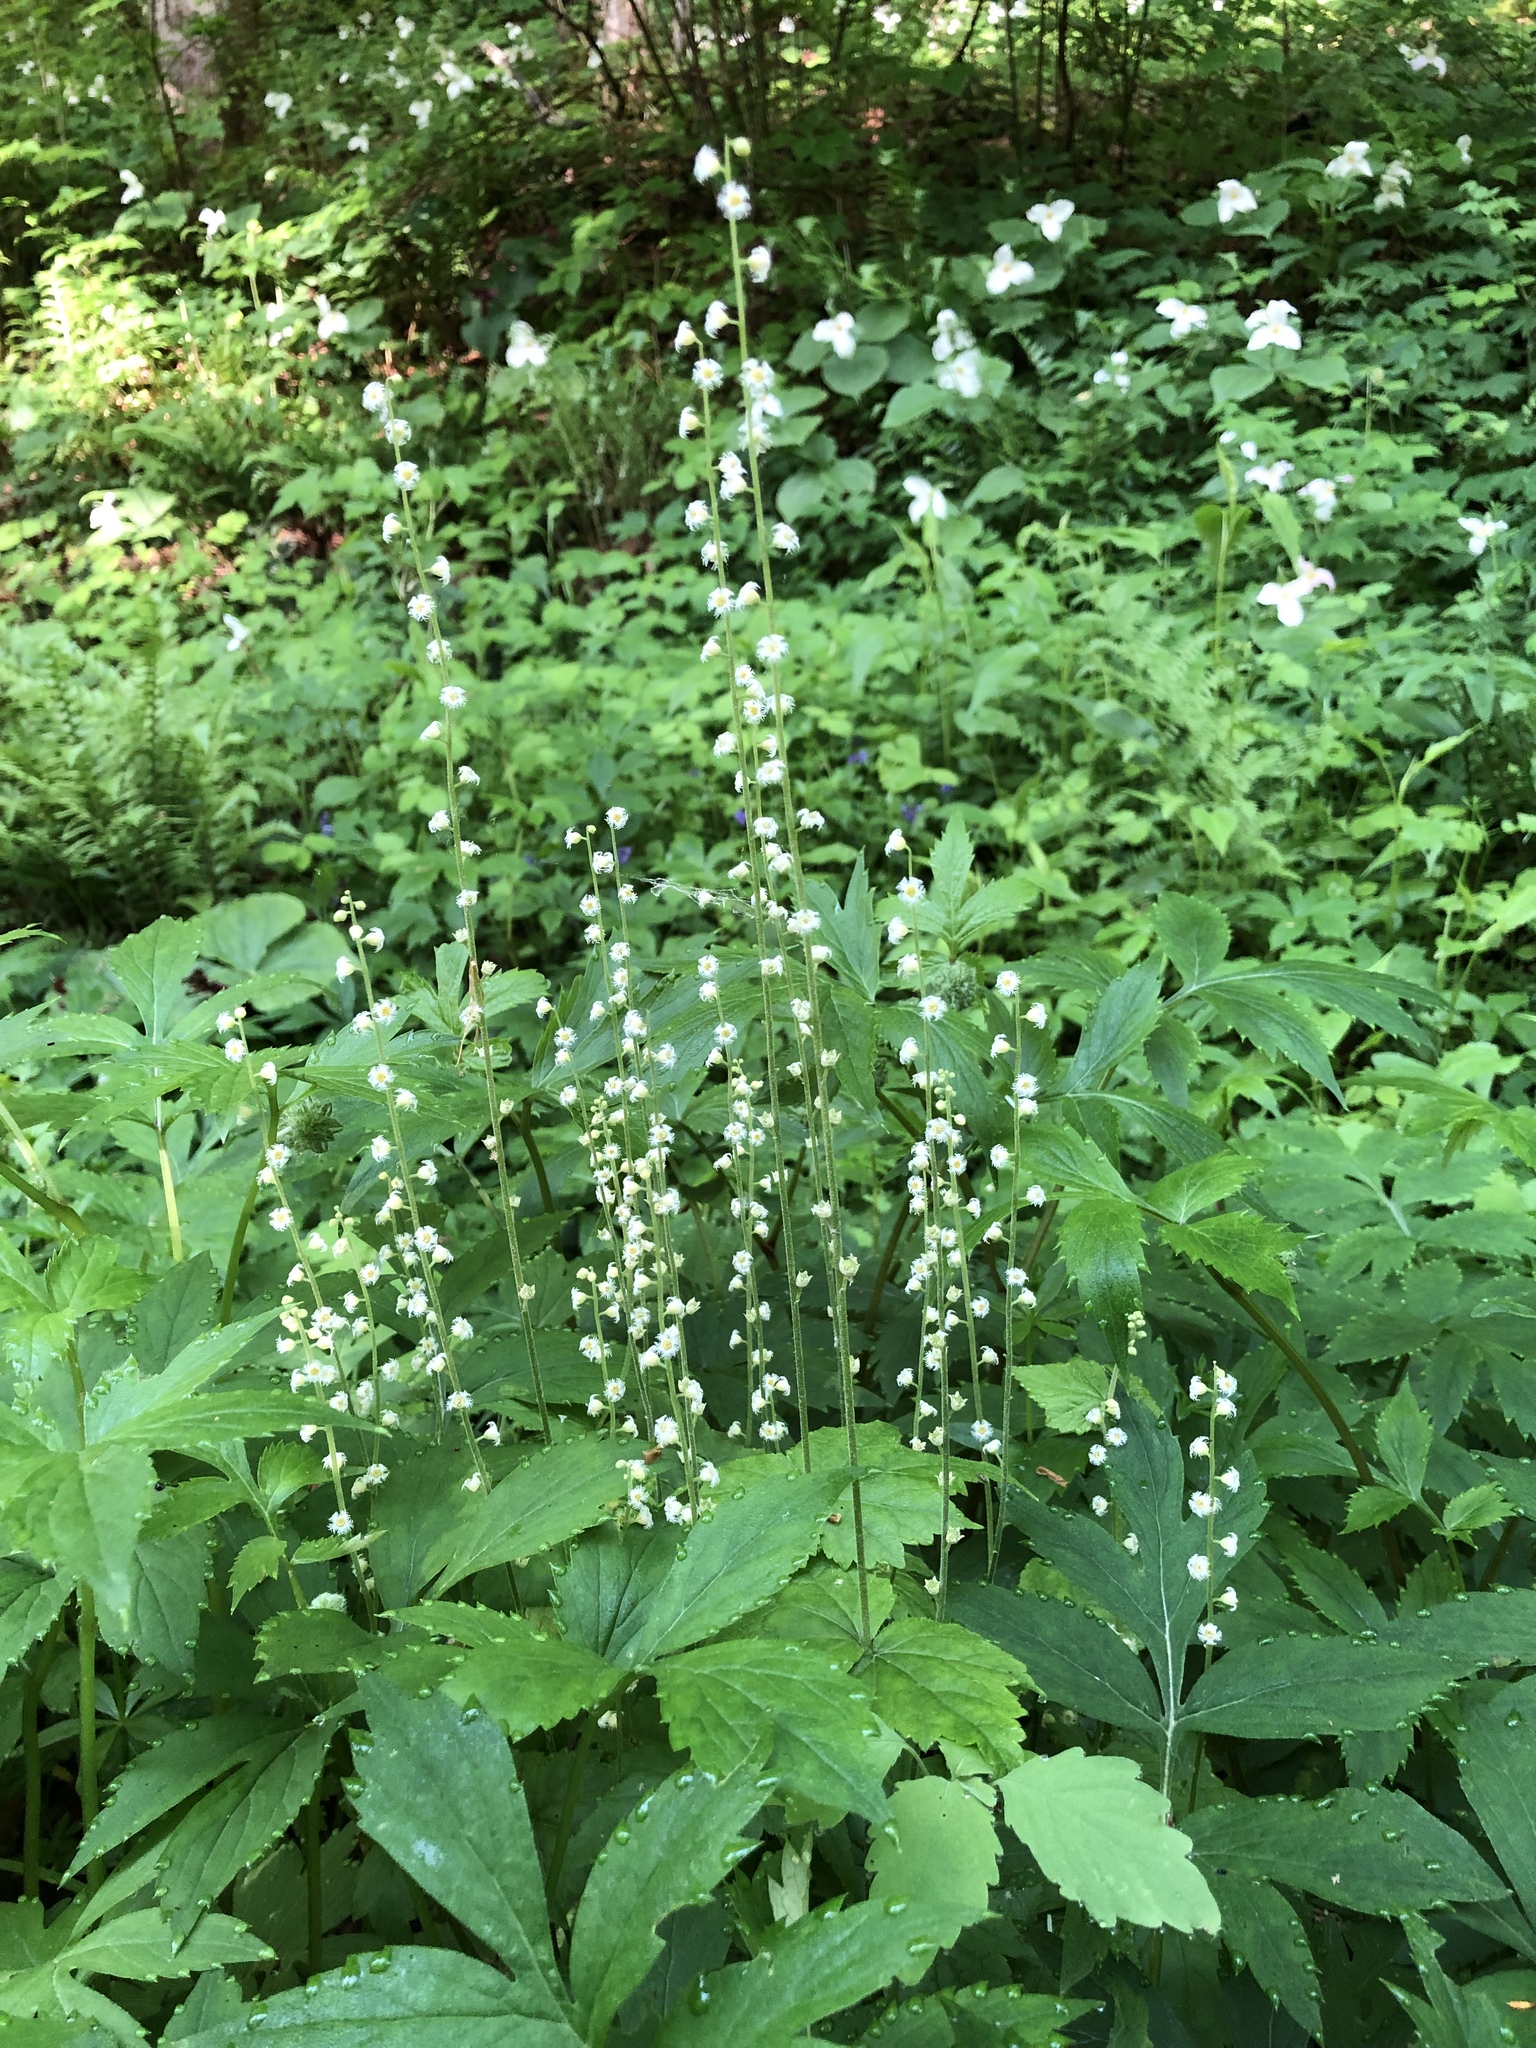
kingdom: Plantae
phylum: Tracheophyta
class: Magnoliopsida
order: Saxifragales
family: Saxifragaceae
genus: Mitella
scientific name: Mitella diphylla
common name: Coolwort
